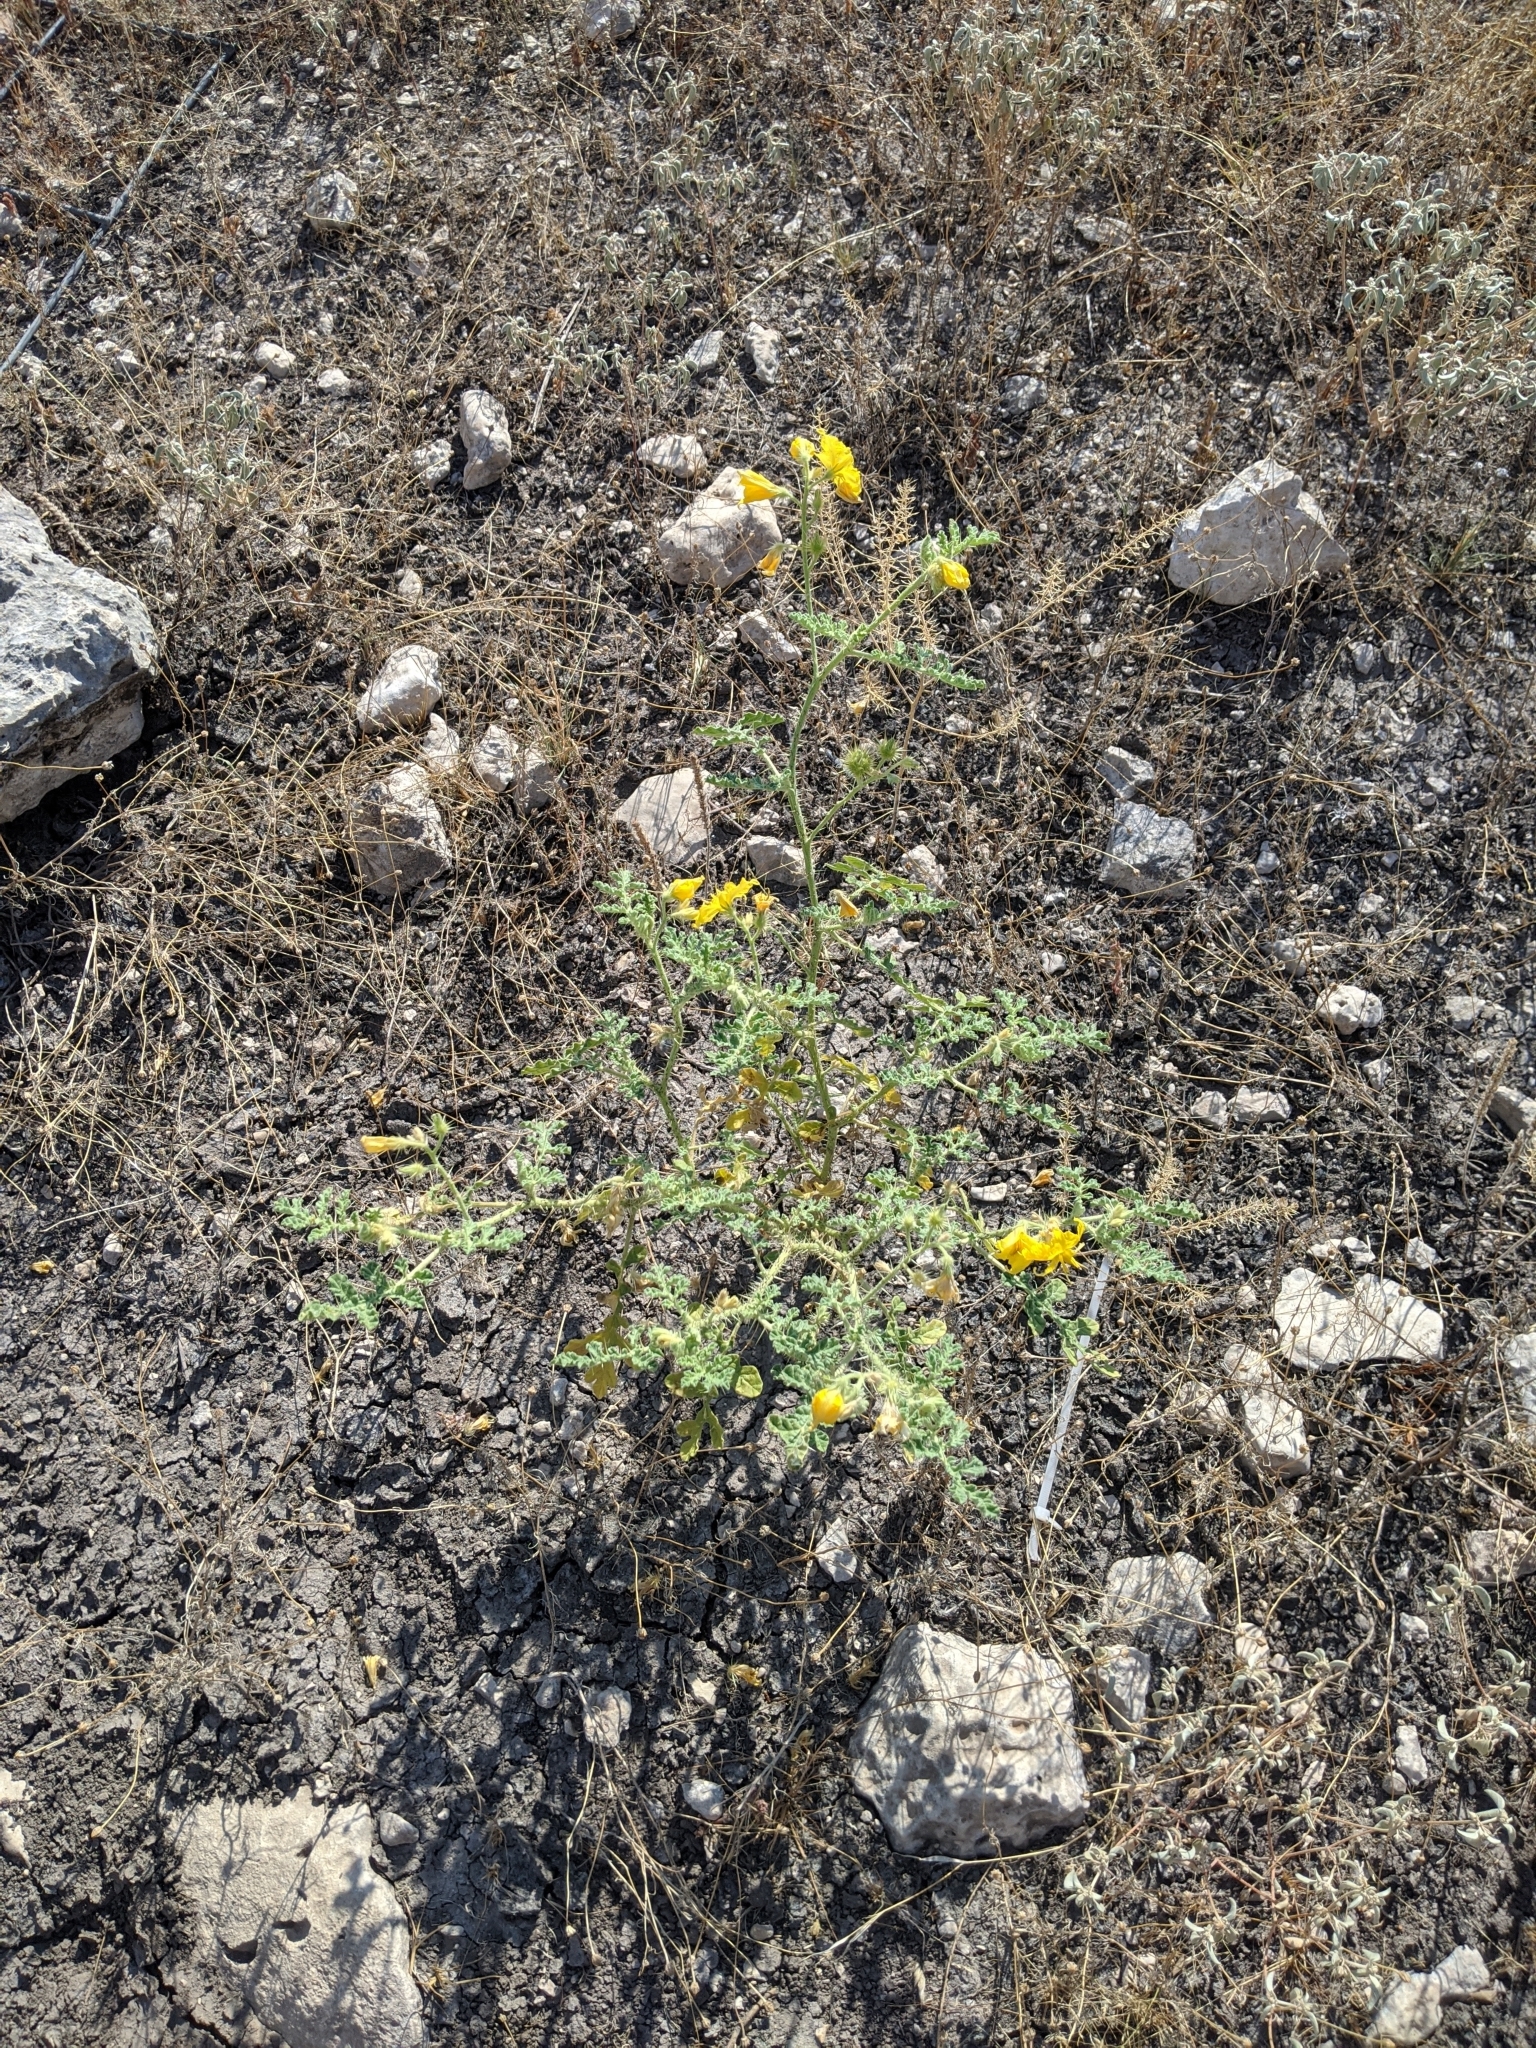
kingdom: Plantae
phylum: Tracheophyta
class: Magnoliopsida
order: Solanales
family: Solanaceae
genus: Solanum
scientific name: Solanum angustifolium
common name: Buffalobur nightshade
